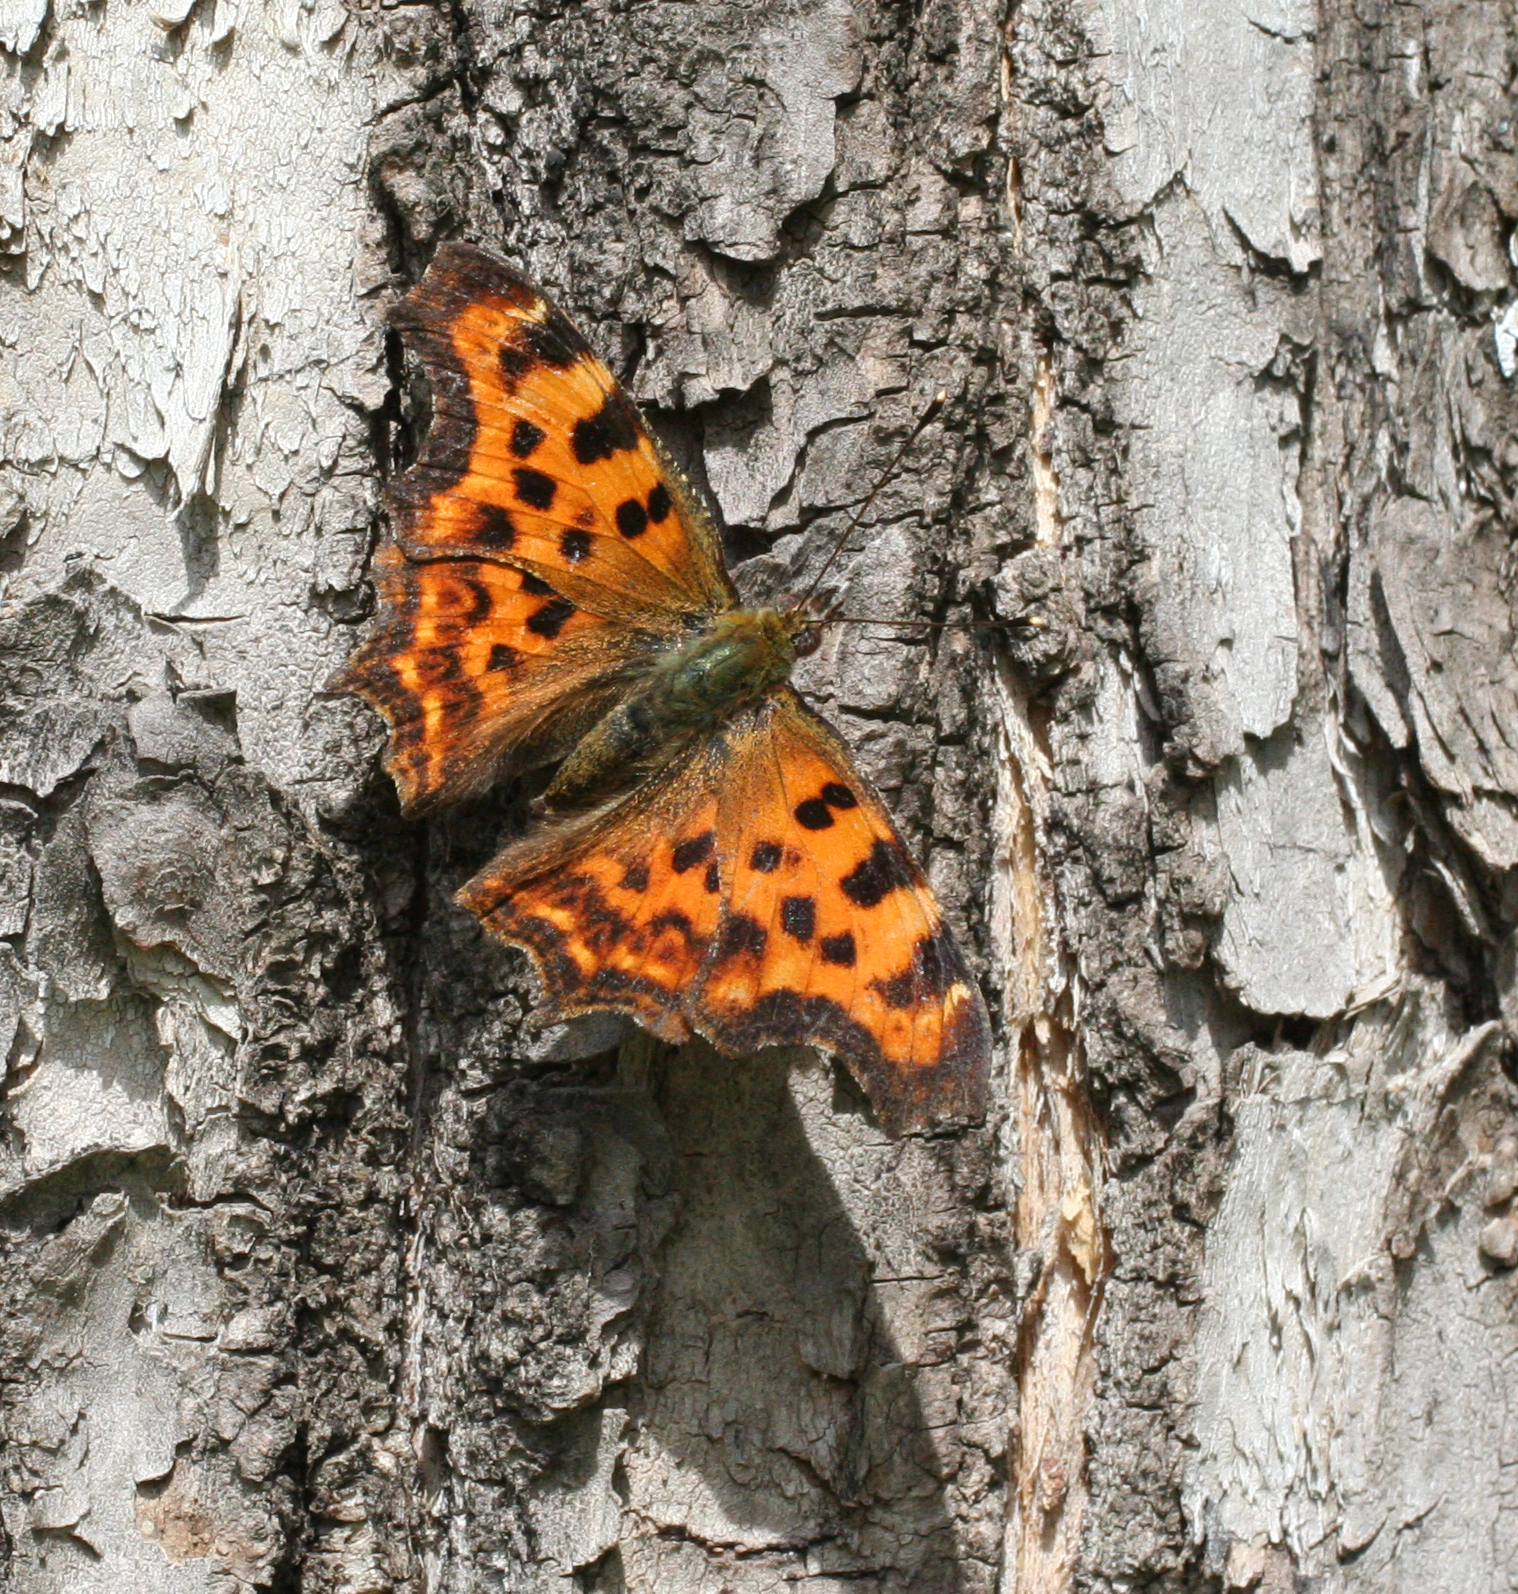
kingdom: Animalia
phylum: Arthropoda
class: Insecta
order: Lepidoptera
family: Nymphalidae
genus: Polygonia
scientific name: Polygonia c-album
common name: Comma
